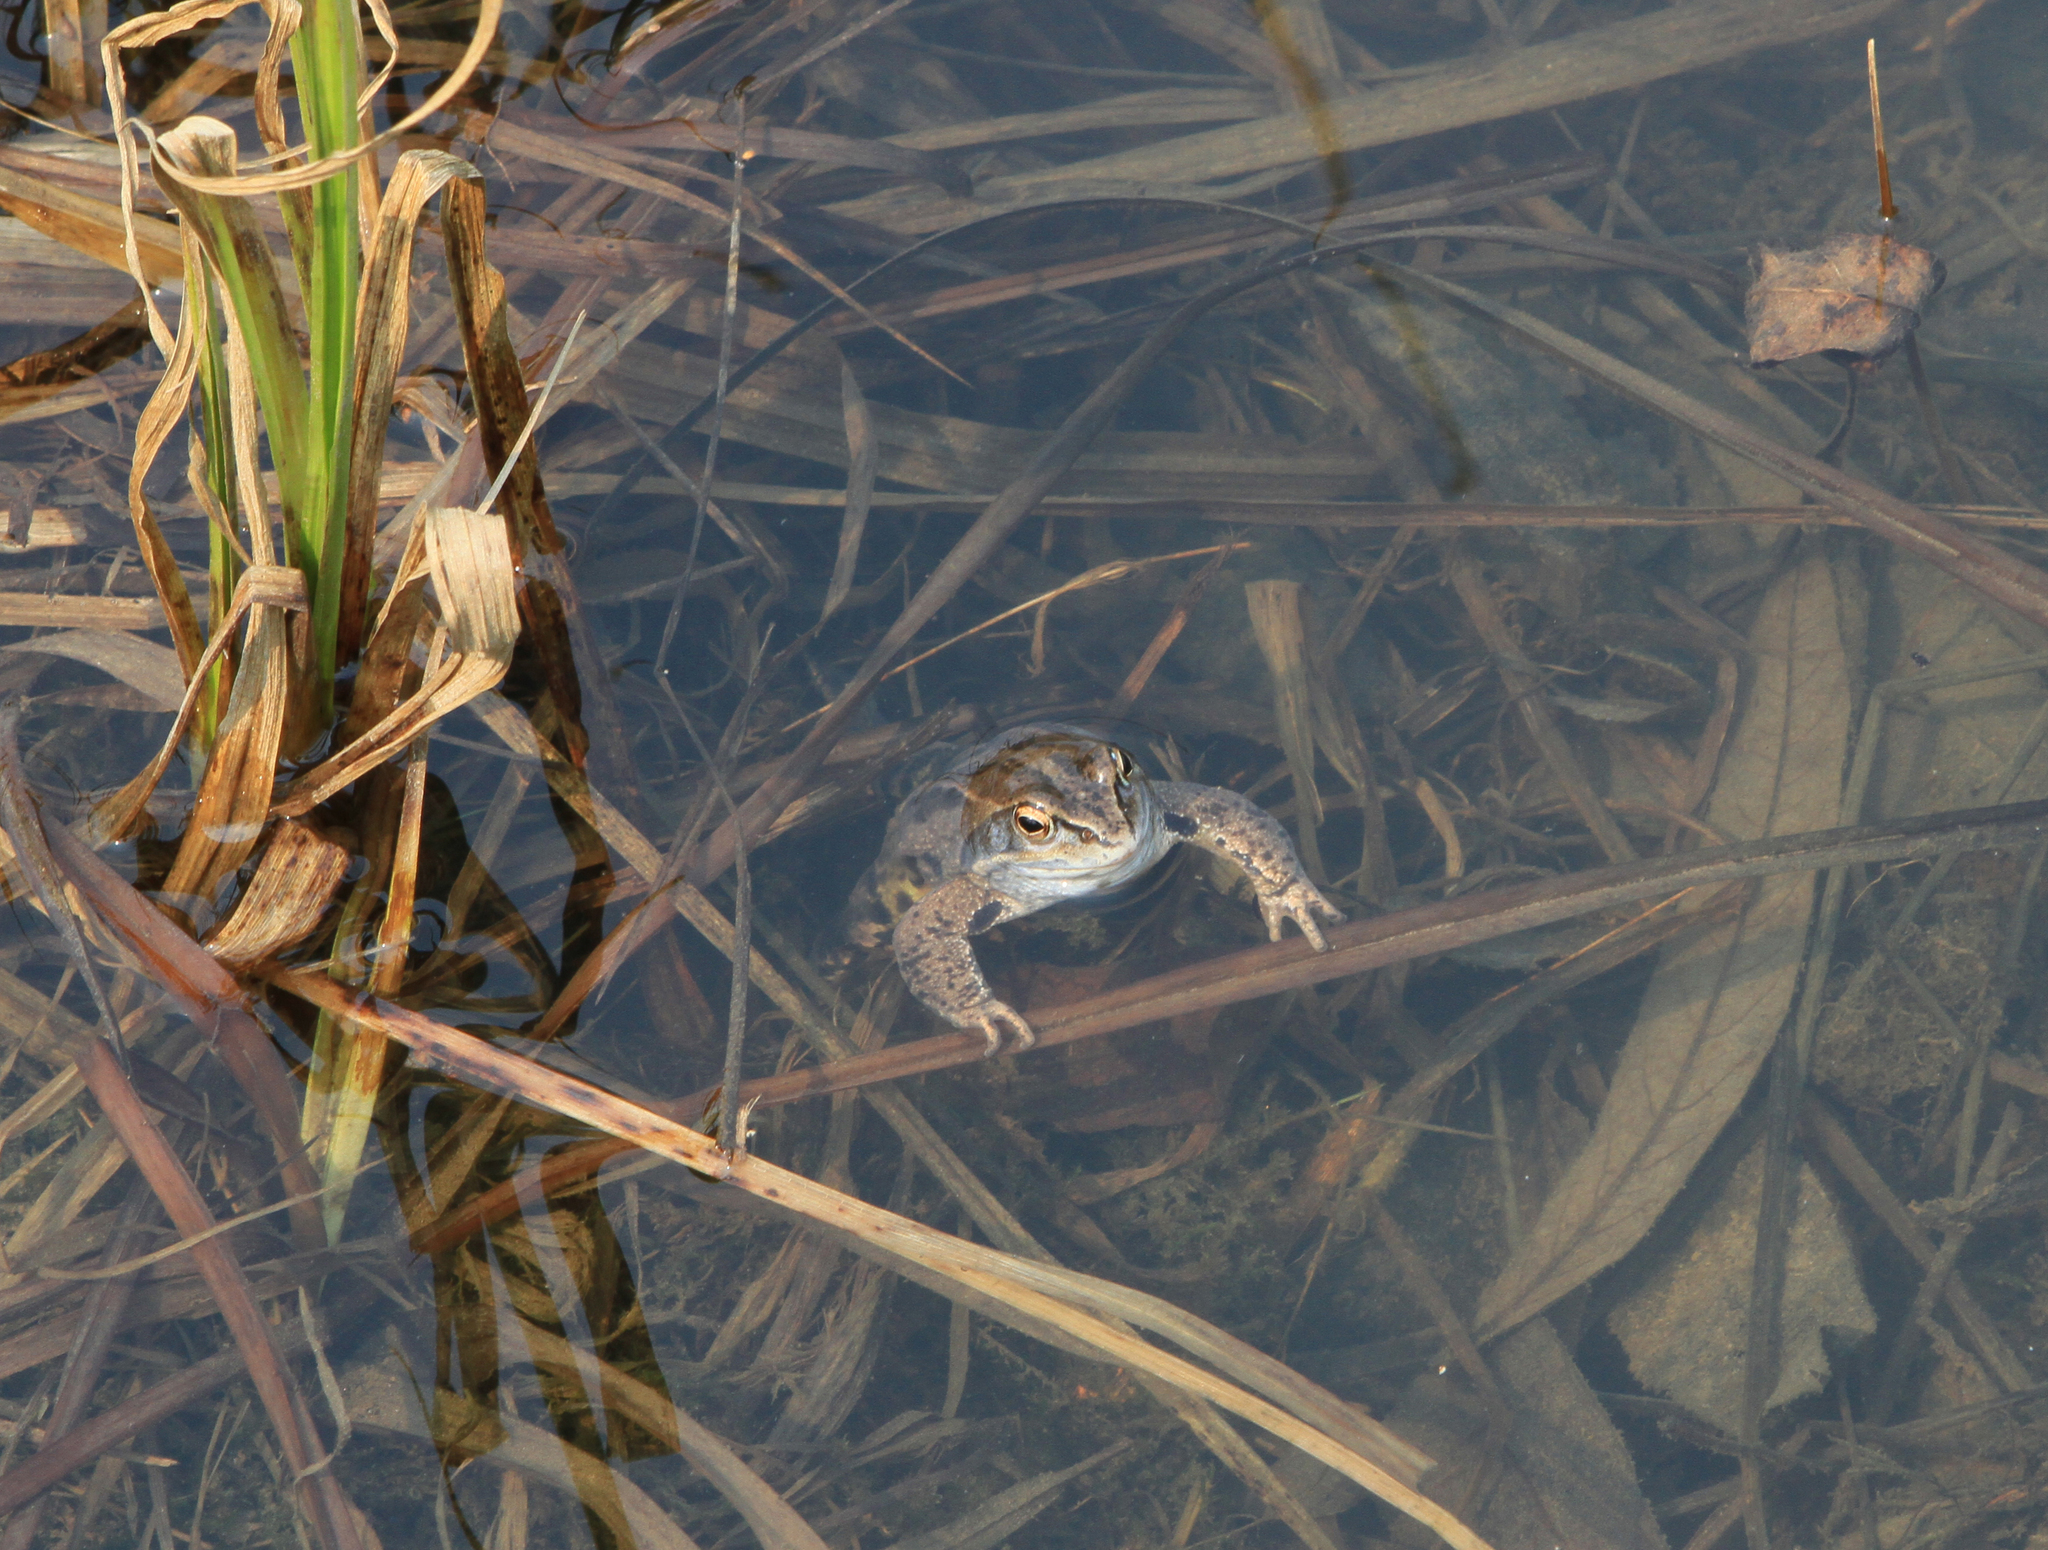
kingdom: Animalia
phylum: Chordata
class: Amphibia
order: Anura
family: Ranidae
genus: Rana
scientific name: Rana arvalis
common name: Moor frog
